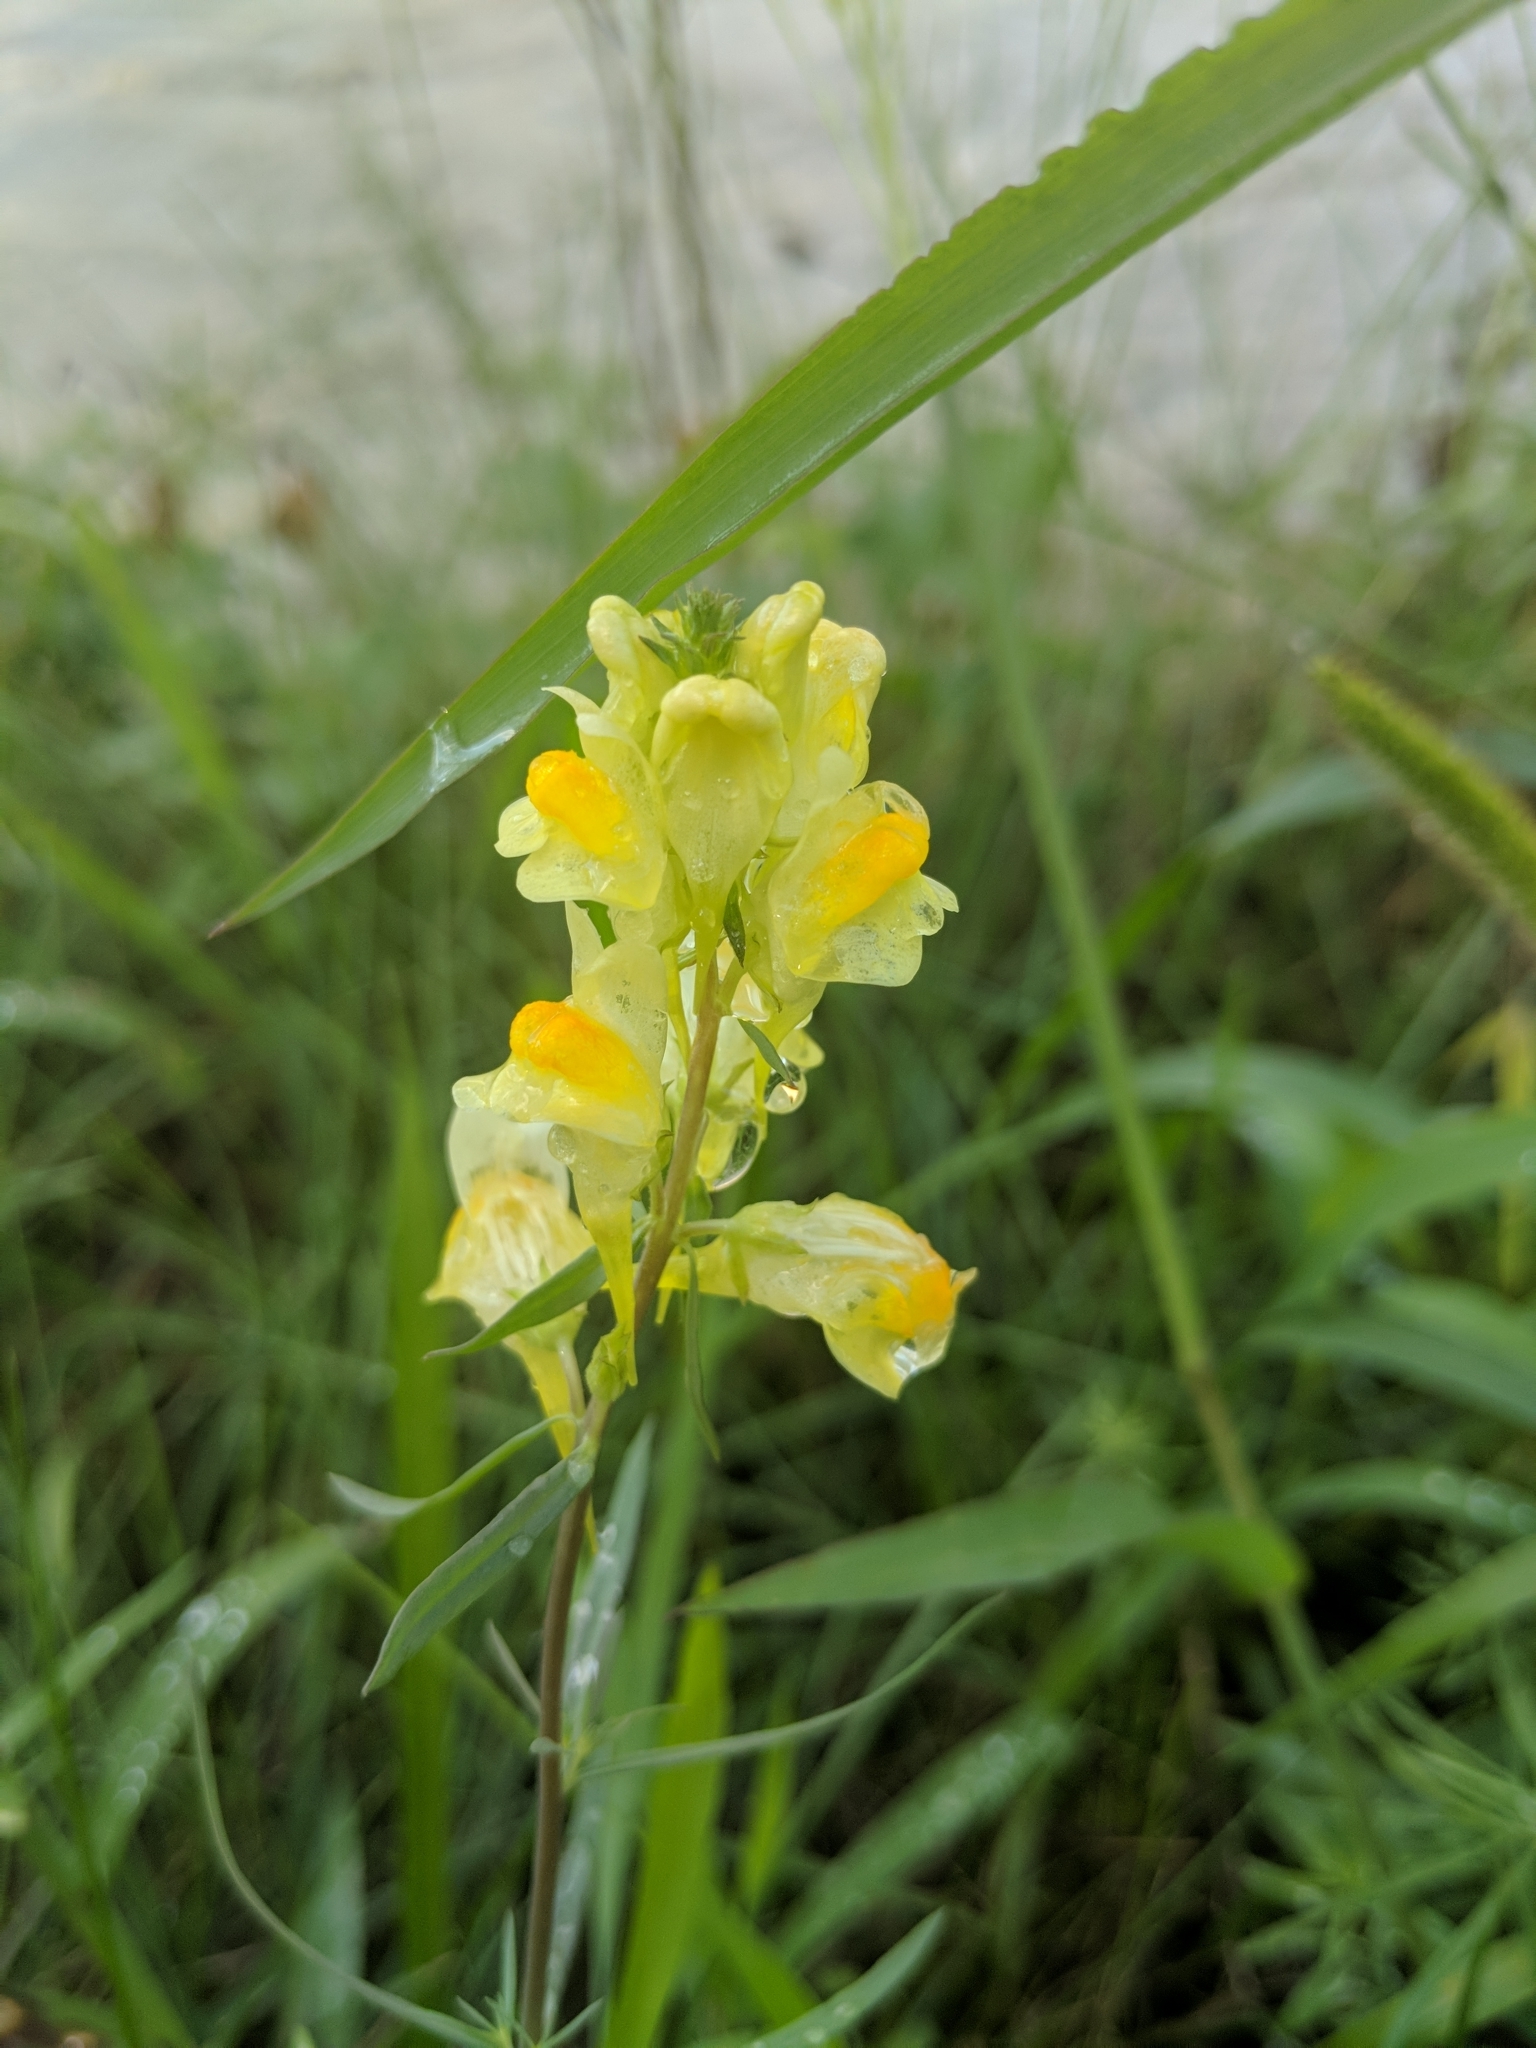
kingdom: Plantae
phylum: Tracheophyta
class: Magnoliopsida
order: Lamiales
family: Plantaginaceae
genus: Linaria
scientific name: Linaria vulgaris
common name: Butter and eggs
